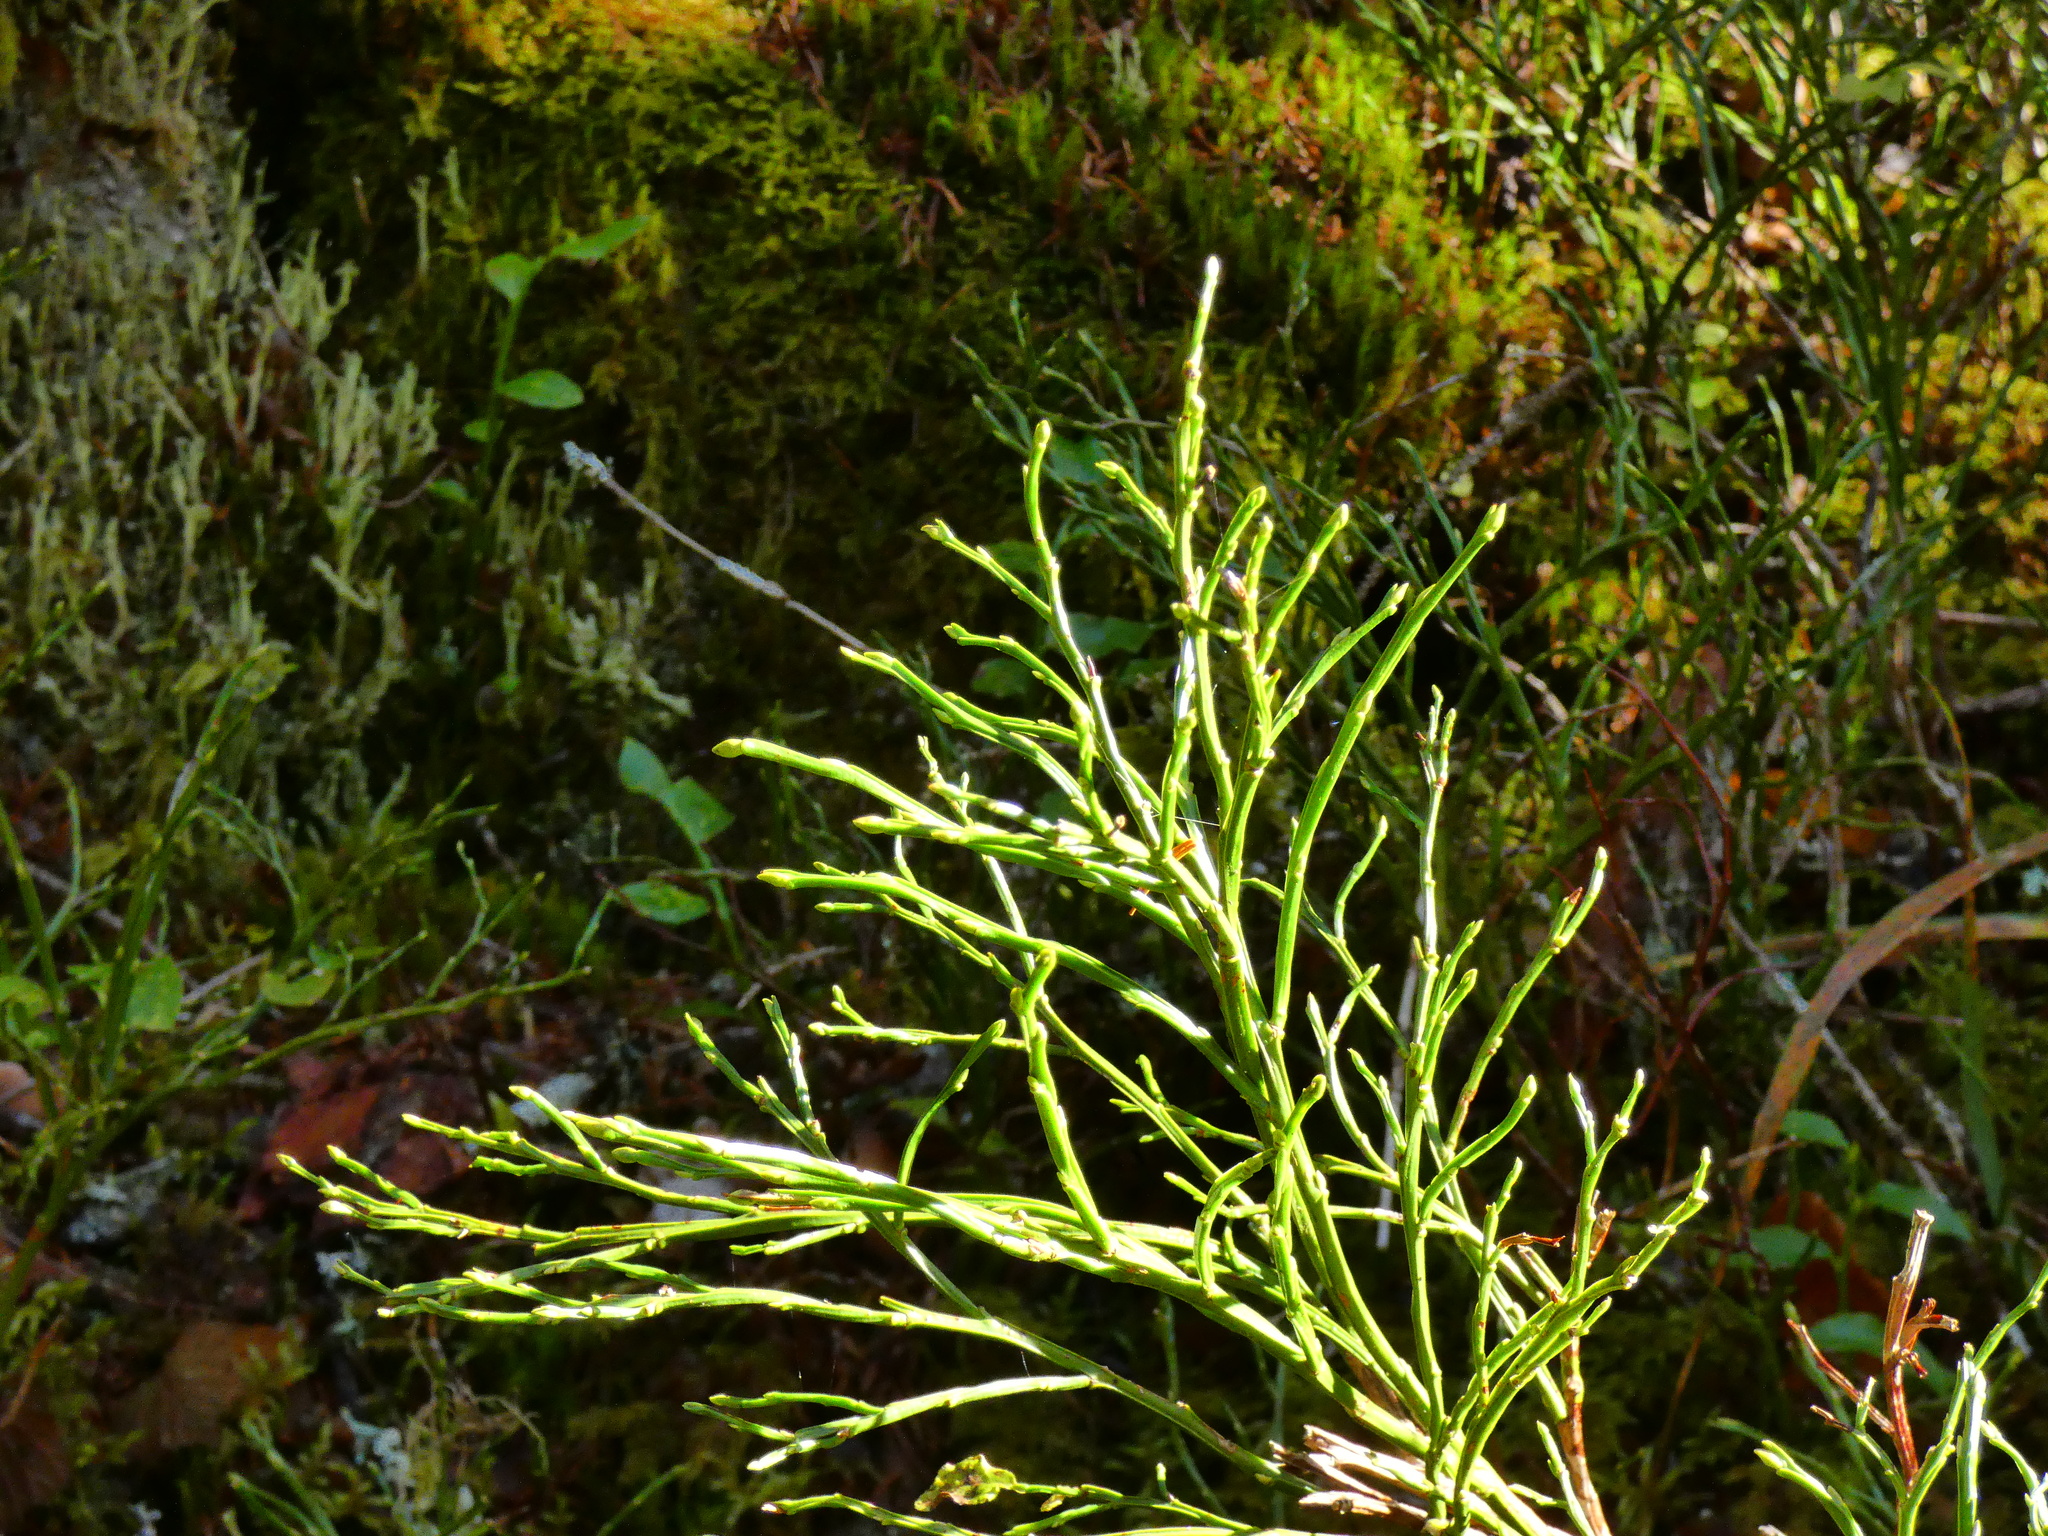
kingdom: Plantae
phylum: Tracheophyta
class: Magnoliopsida
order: Ericales
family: Ericaceae
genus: Vaccinium
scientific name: Vaccinium myrtillus
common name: Bilberry
